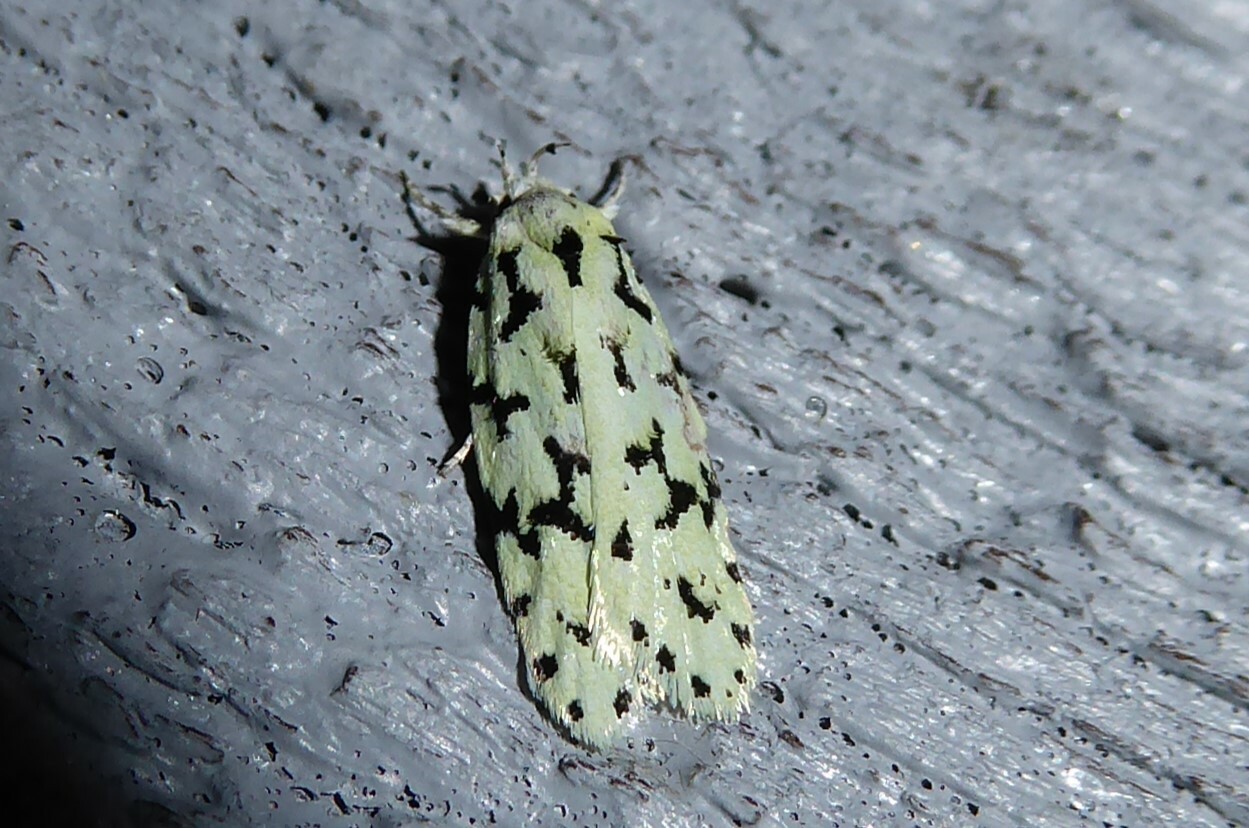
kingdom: Animalia
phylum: Arthropoda
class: Insecta
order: Lepidoptera
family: Oecophoridae
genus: Izatha
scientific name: Izatha huttoni
